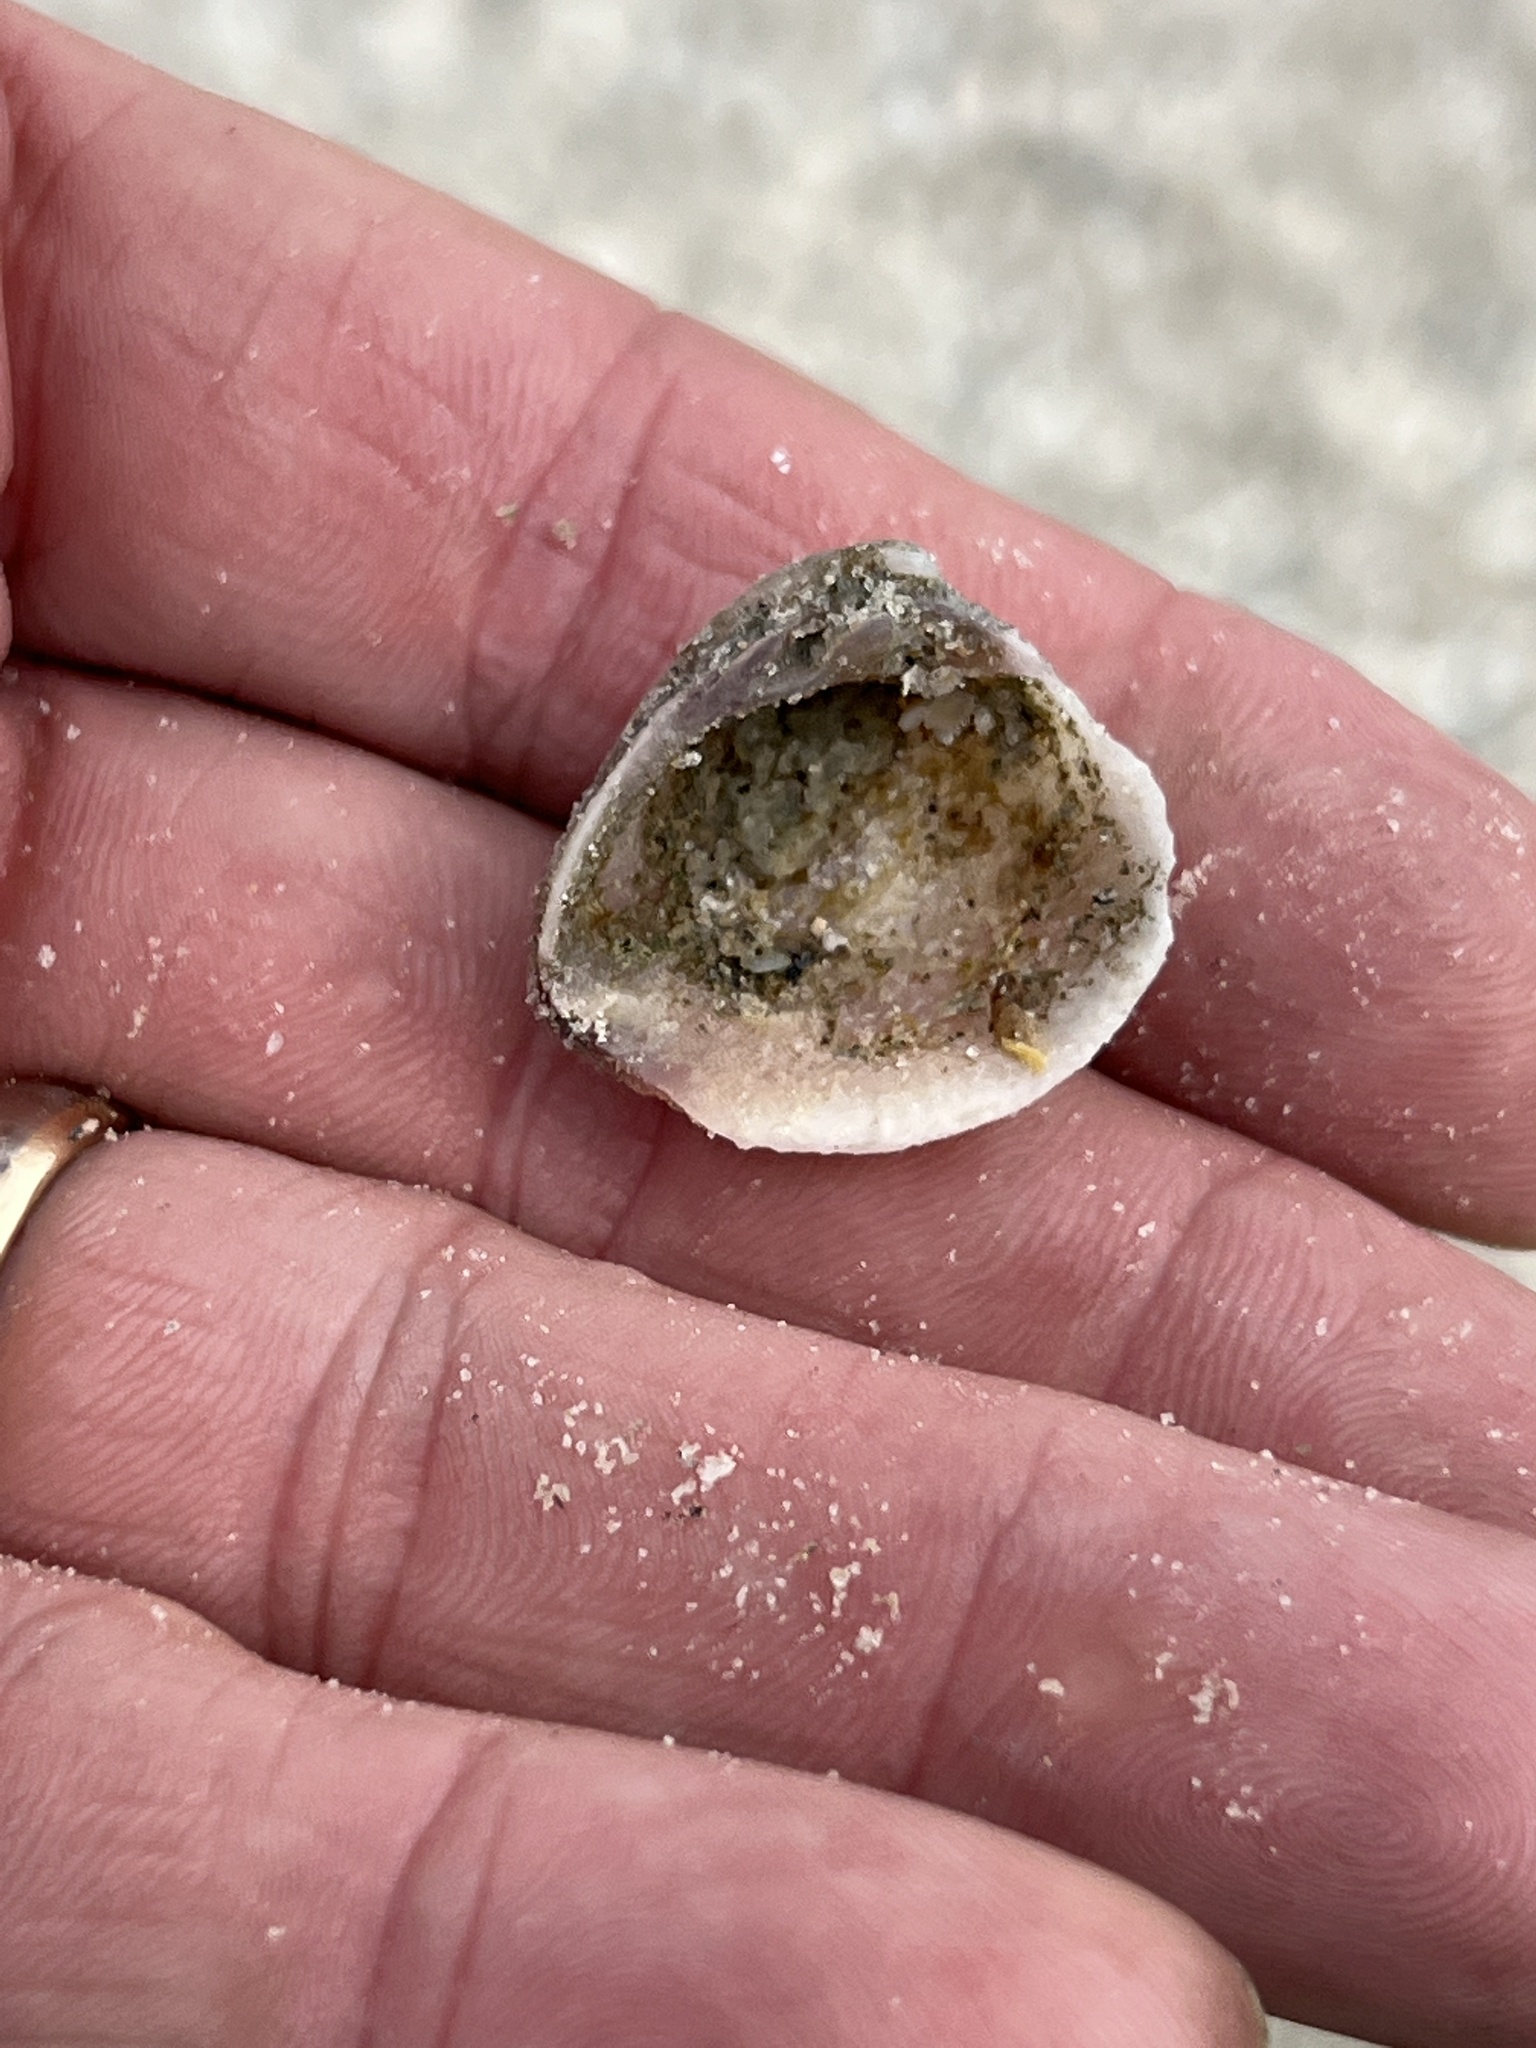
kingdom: Animalia
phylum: Mollusca
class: Bivalvia
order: Venerida
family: Veneridae
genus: Chione
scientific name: Chione elevata
